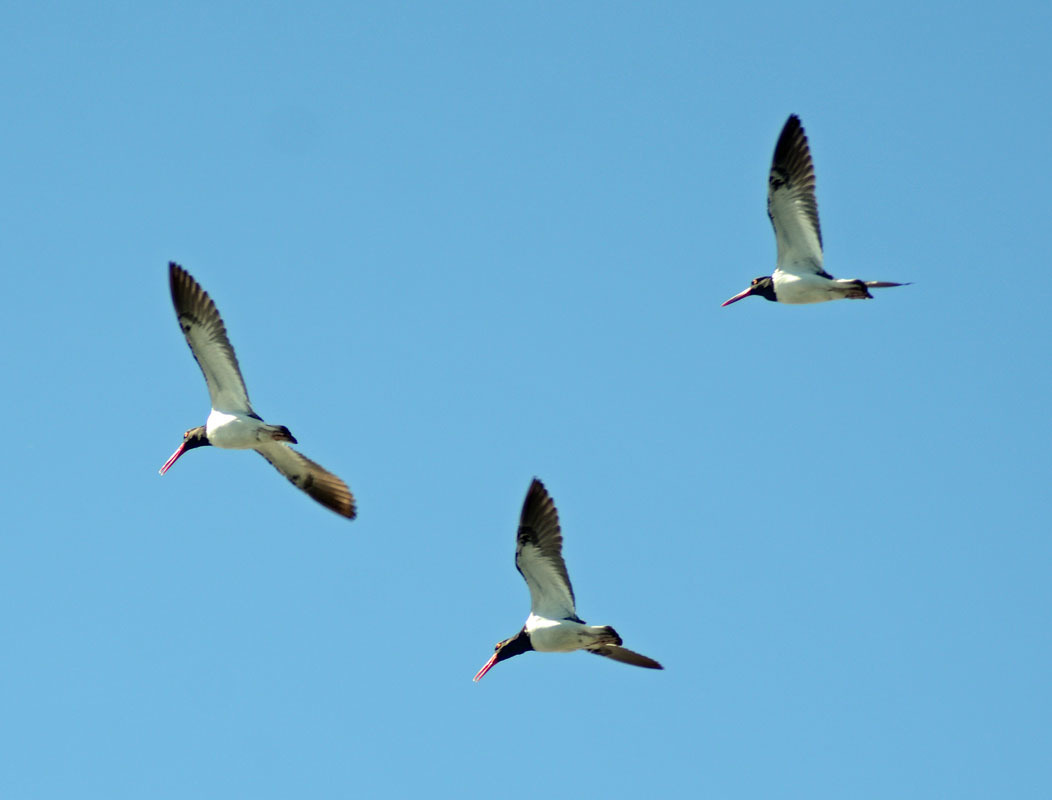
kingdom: Animalia
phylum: Chordata
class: Aves
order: Charadriiformes
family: Haematopodidae
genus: Haematopus
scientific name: Haematopus palliatus
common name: American oystercatcher
